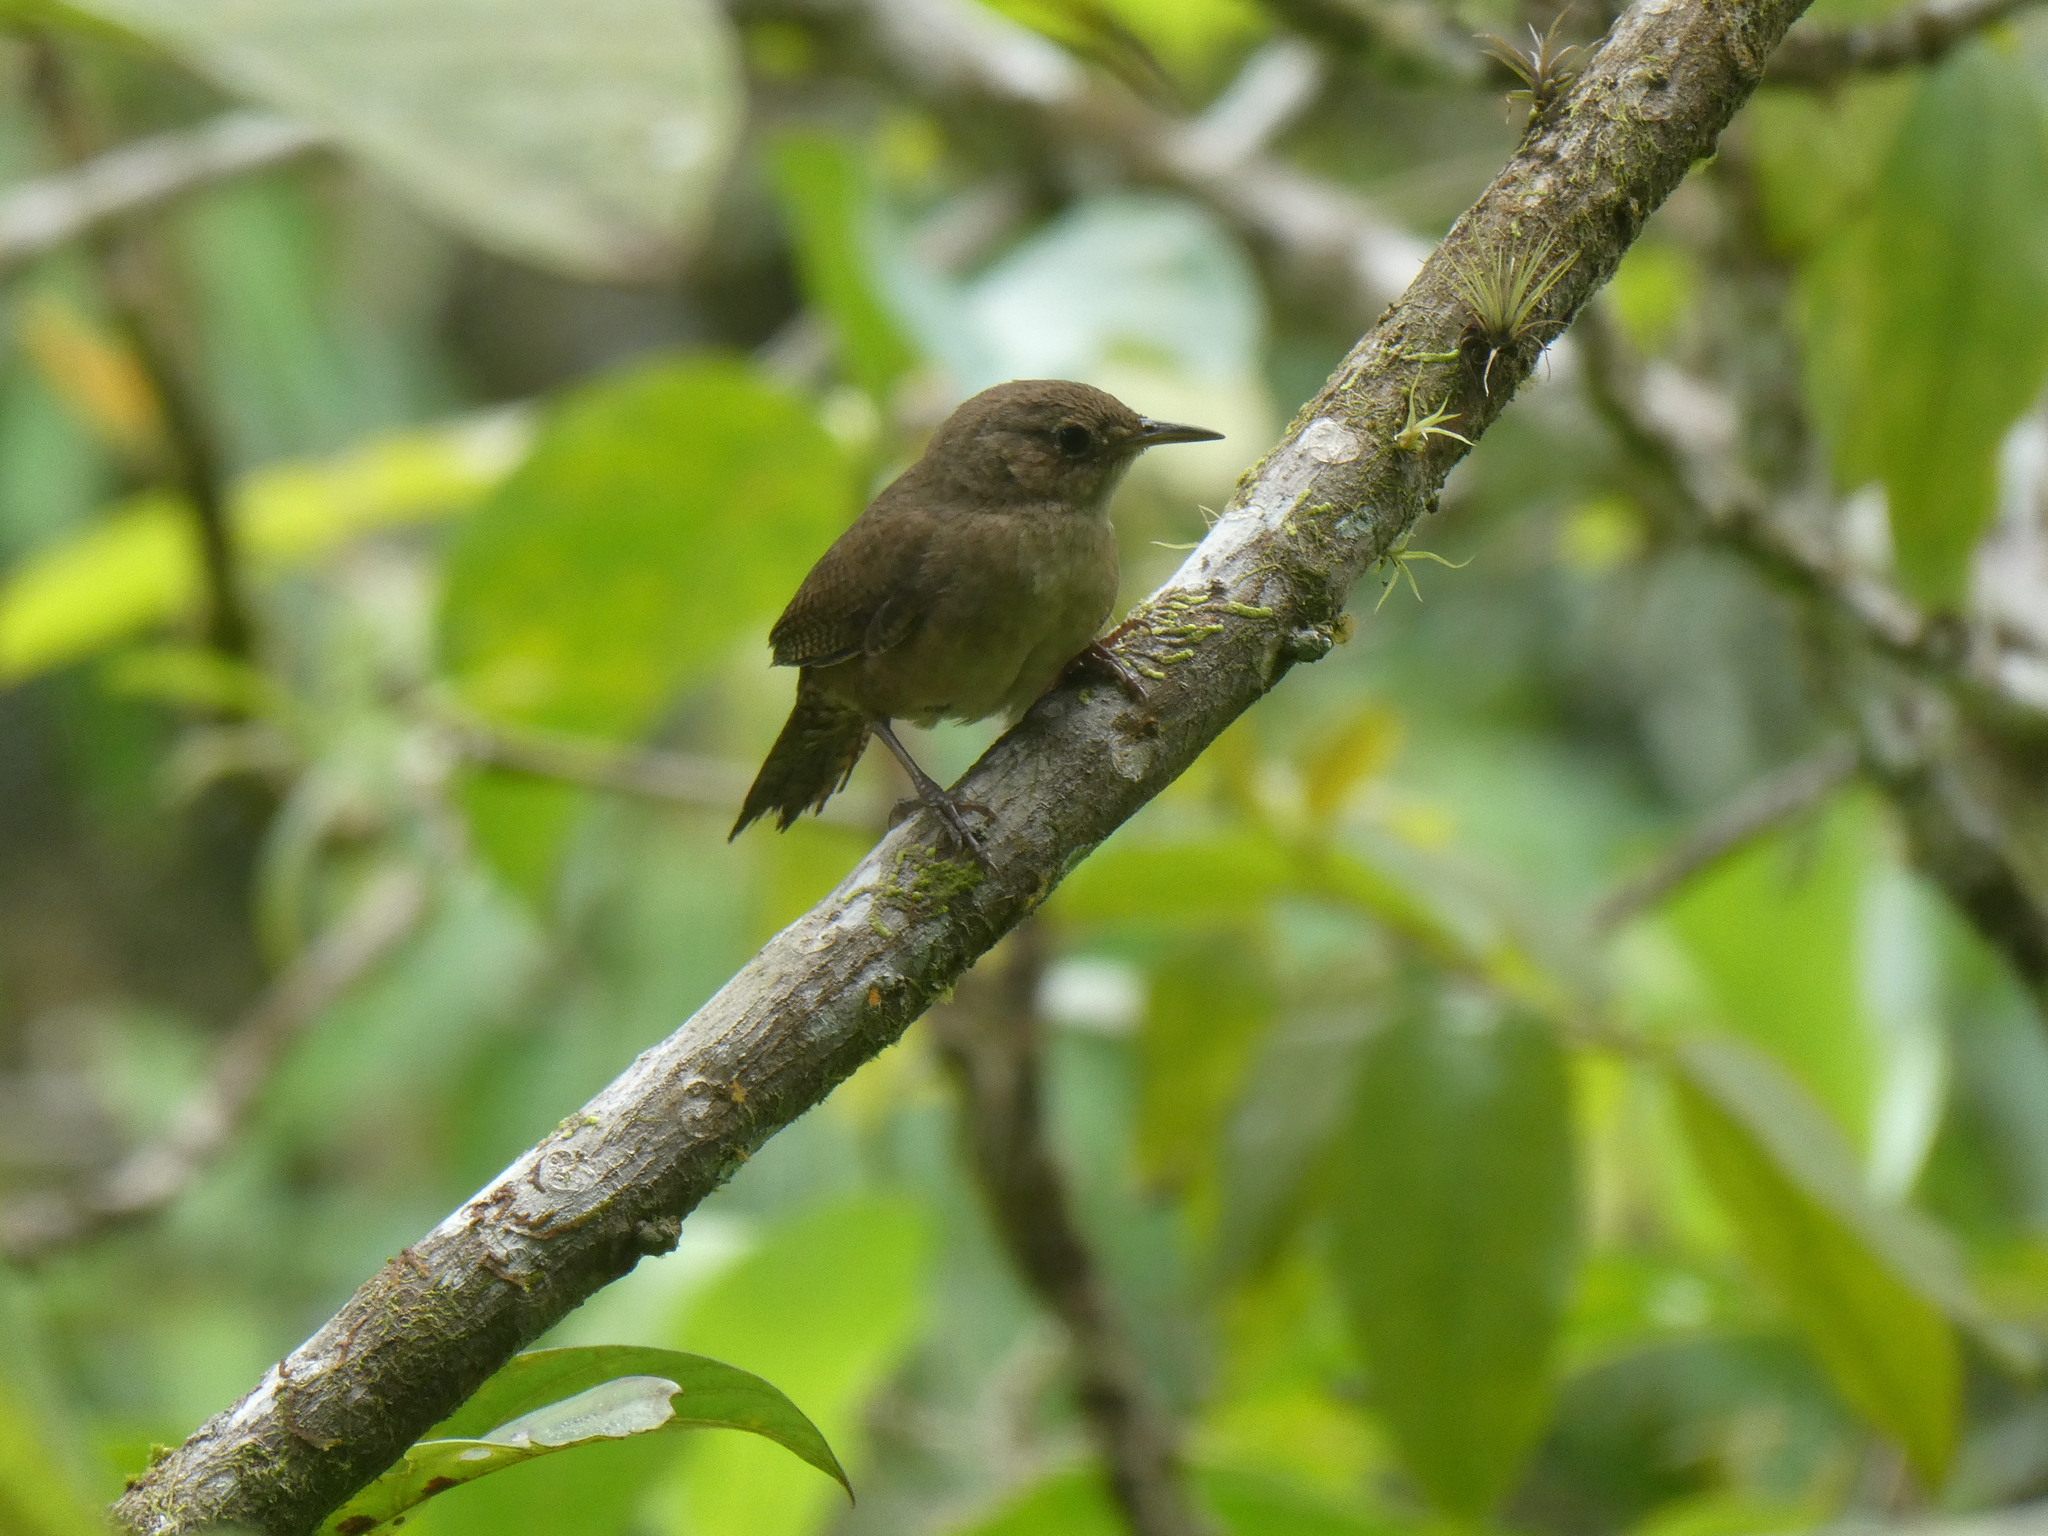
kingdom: Animalia
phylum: Chordata
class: Aves
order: Passeriformes
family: Troglodytidae
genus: Troglodytes
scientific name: Troglodytes aedon
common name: House wren
